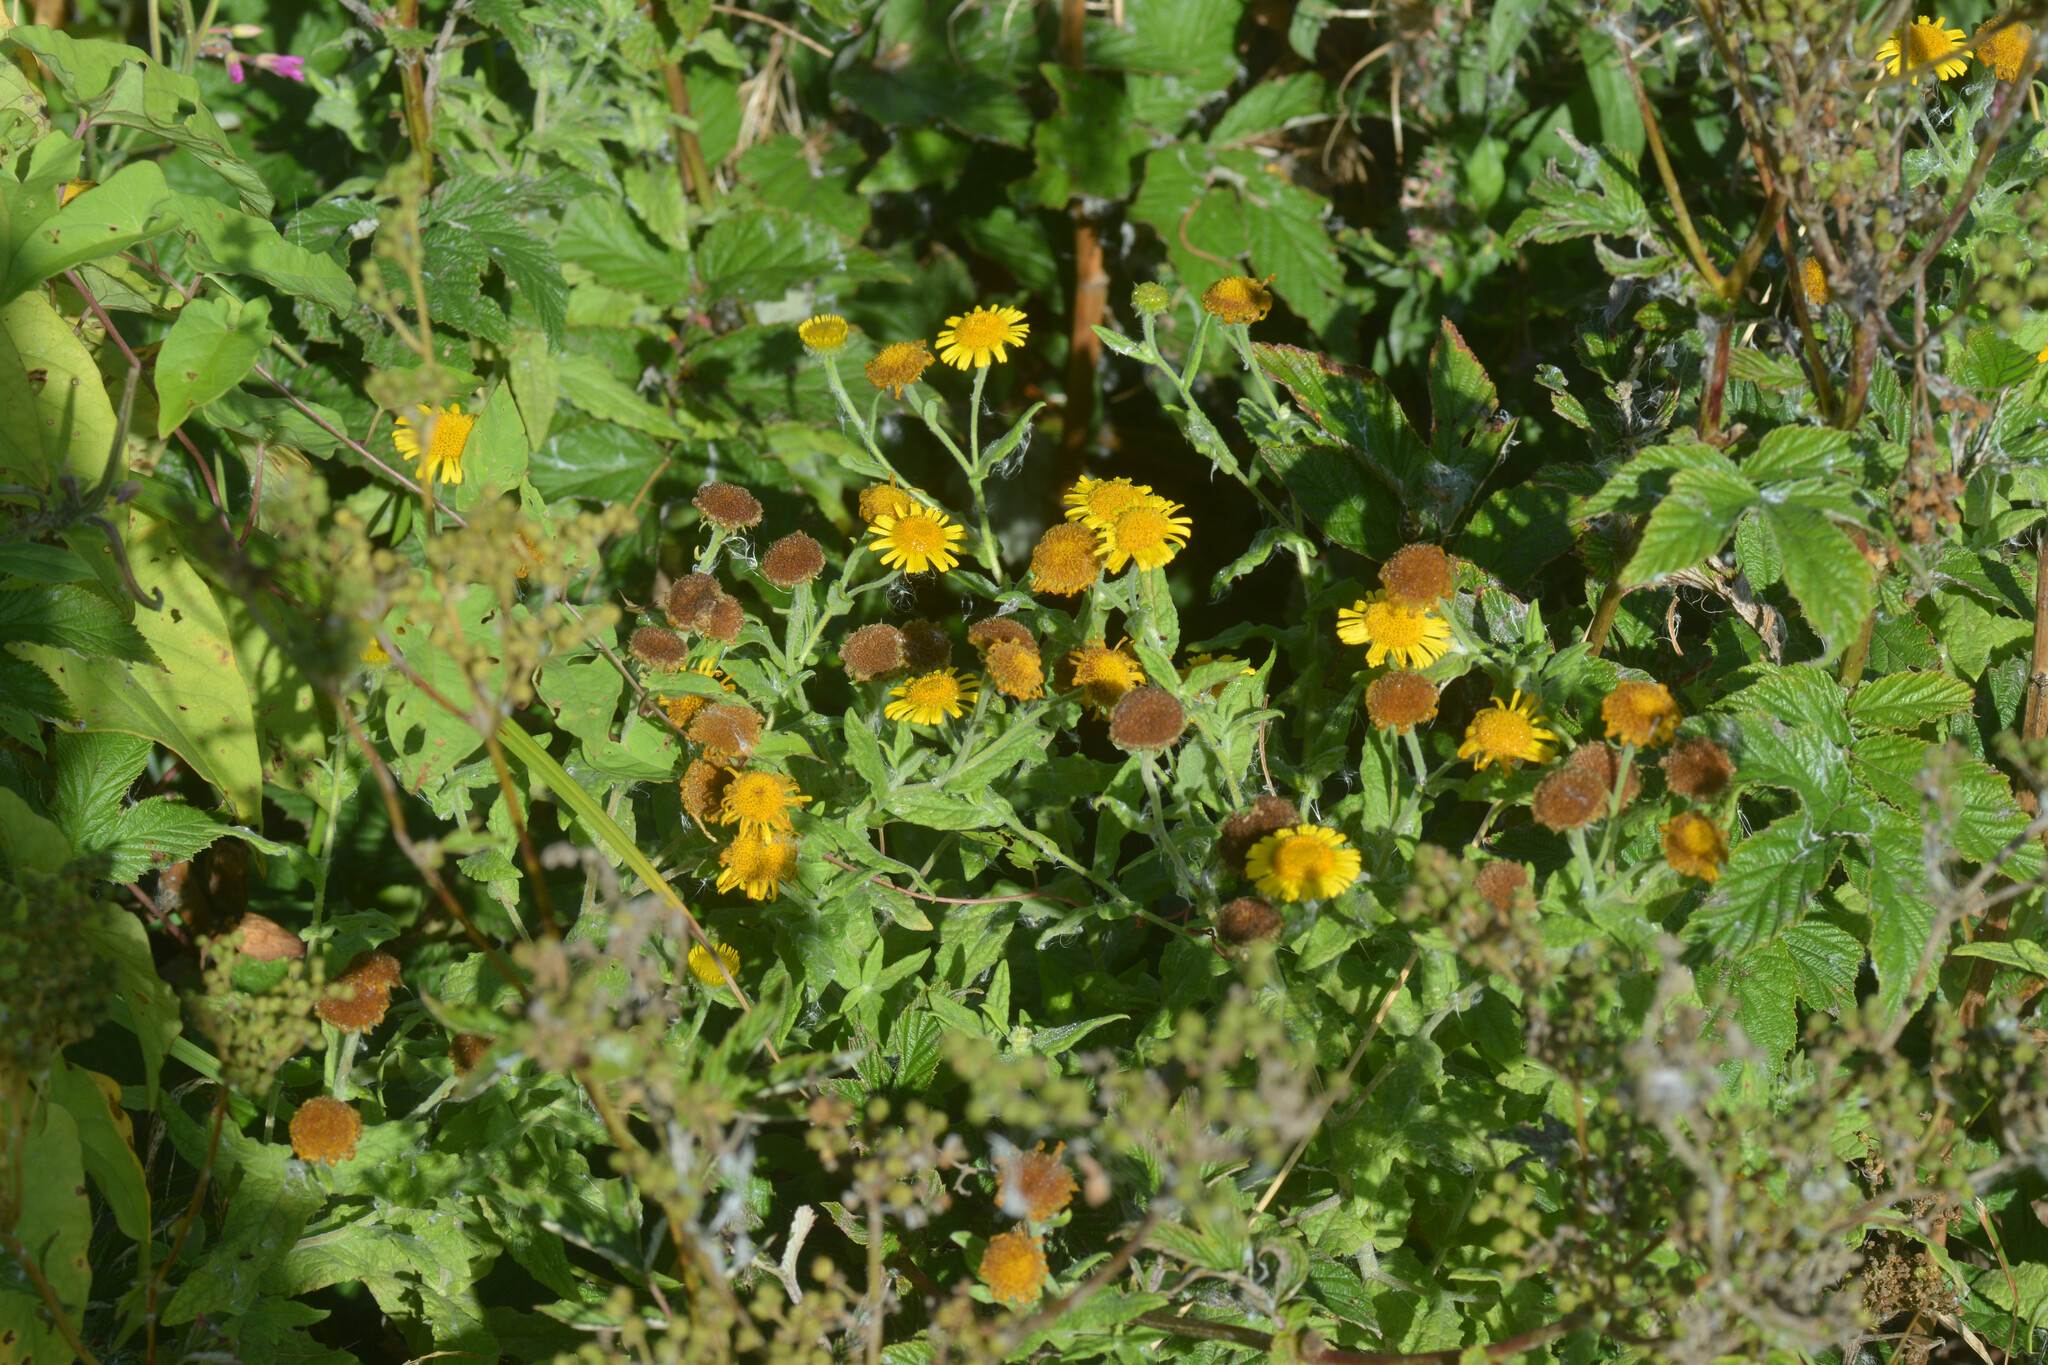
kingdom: Plantae
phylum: Tracheophyta
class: Magnoliopsida
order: Asterales
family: Asteraceae
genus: Pulicaria
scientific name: Pulicaria dysenterica
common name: Common fleabane
